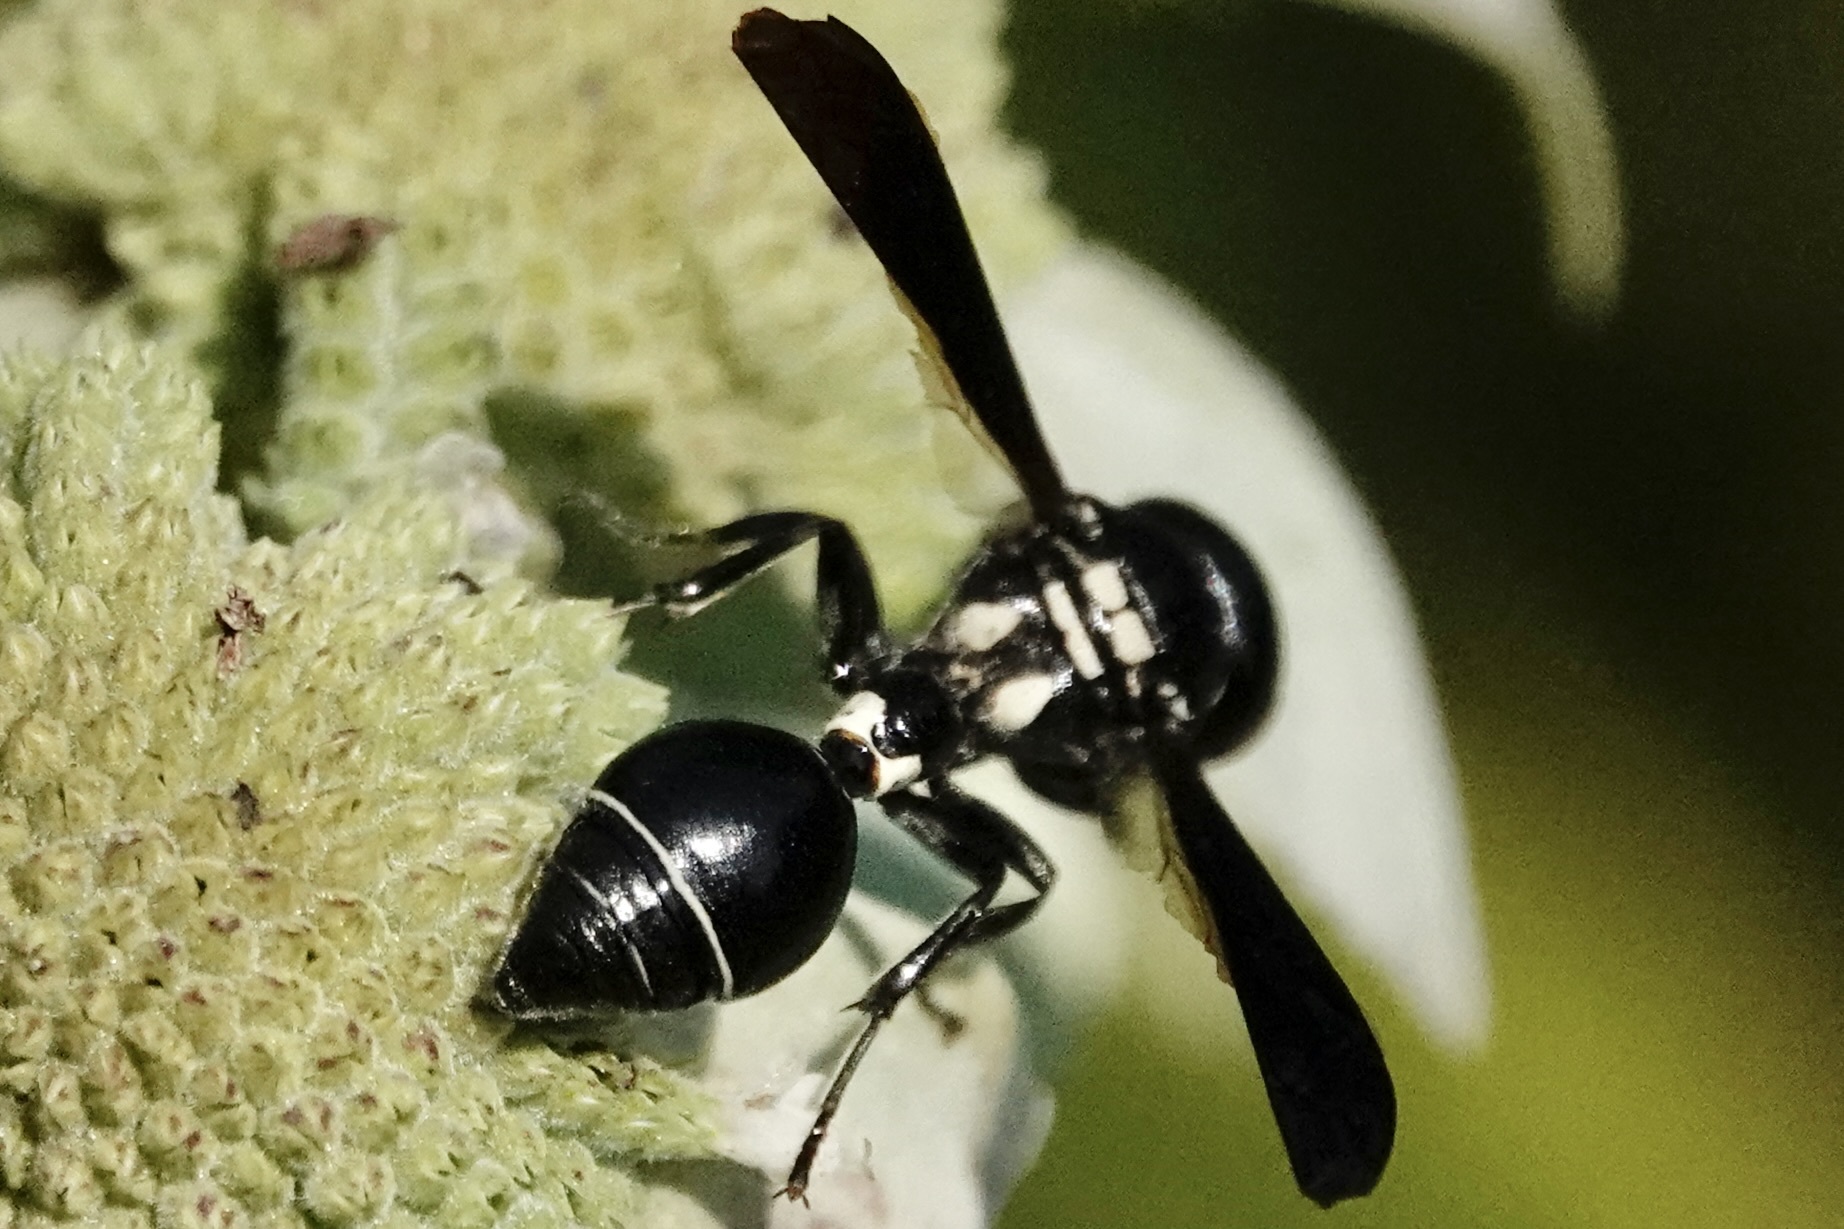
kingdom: Animalia
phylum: Arthropoda
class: Insecta
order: Hymenoptera
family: Eumenidae
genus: Zethus
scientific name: Zethus spinipes
